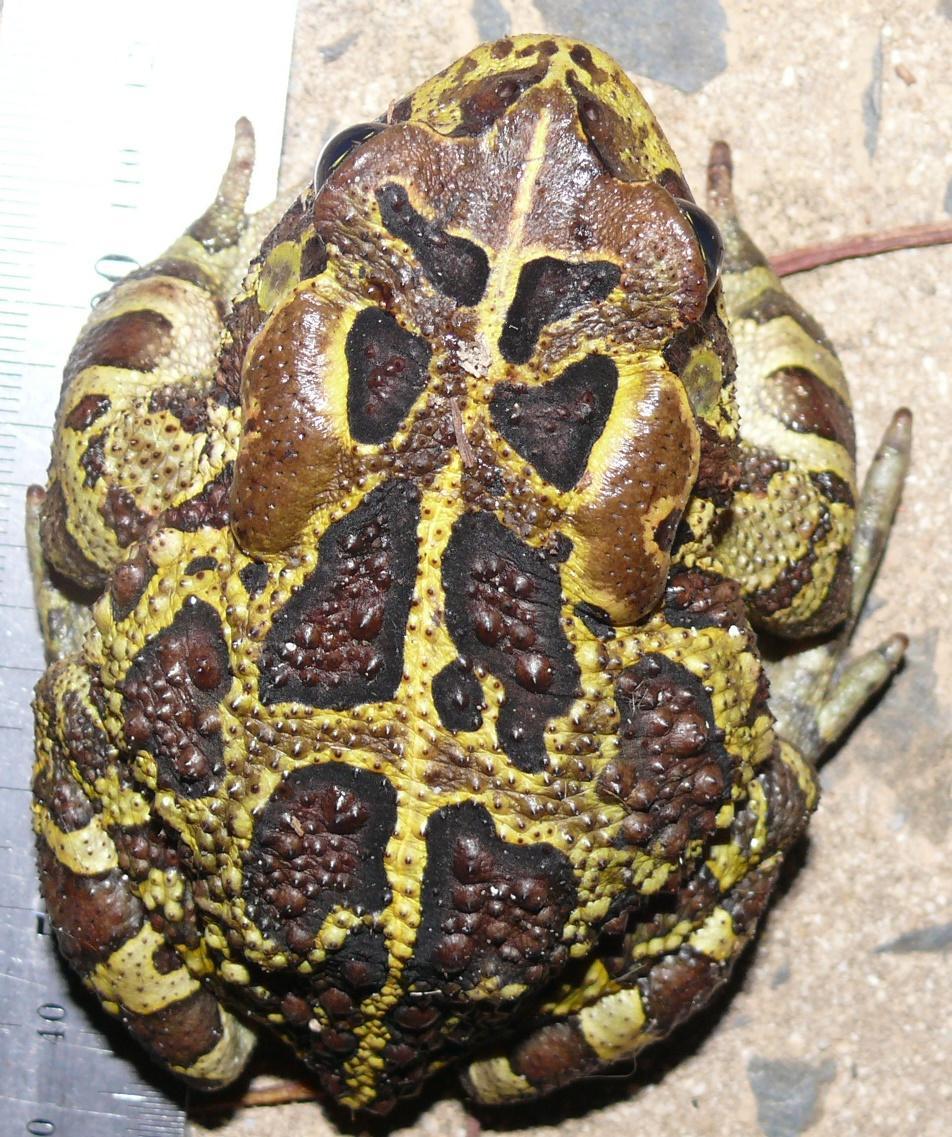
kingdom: Animalia
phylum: Chordata
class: Amphibia
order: Anura
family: Bufonidae
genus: Sclerophrys
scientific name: Sclerophrys pantherina
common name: Panther toad
